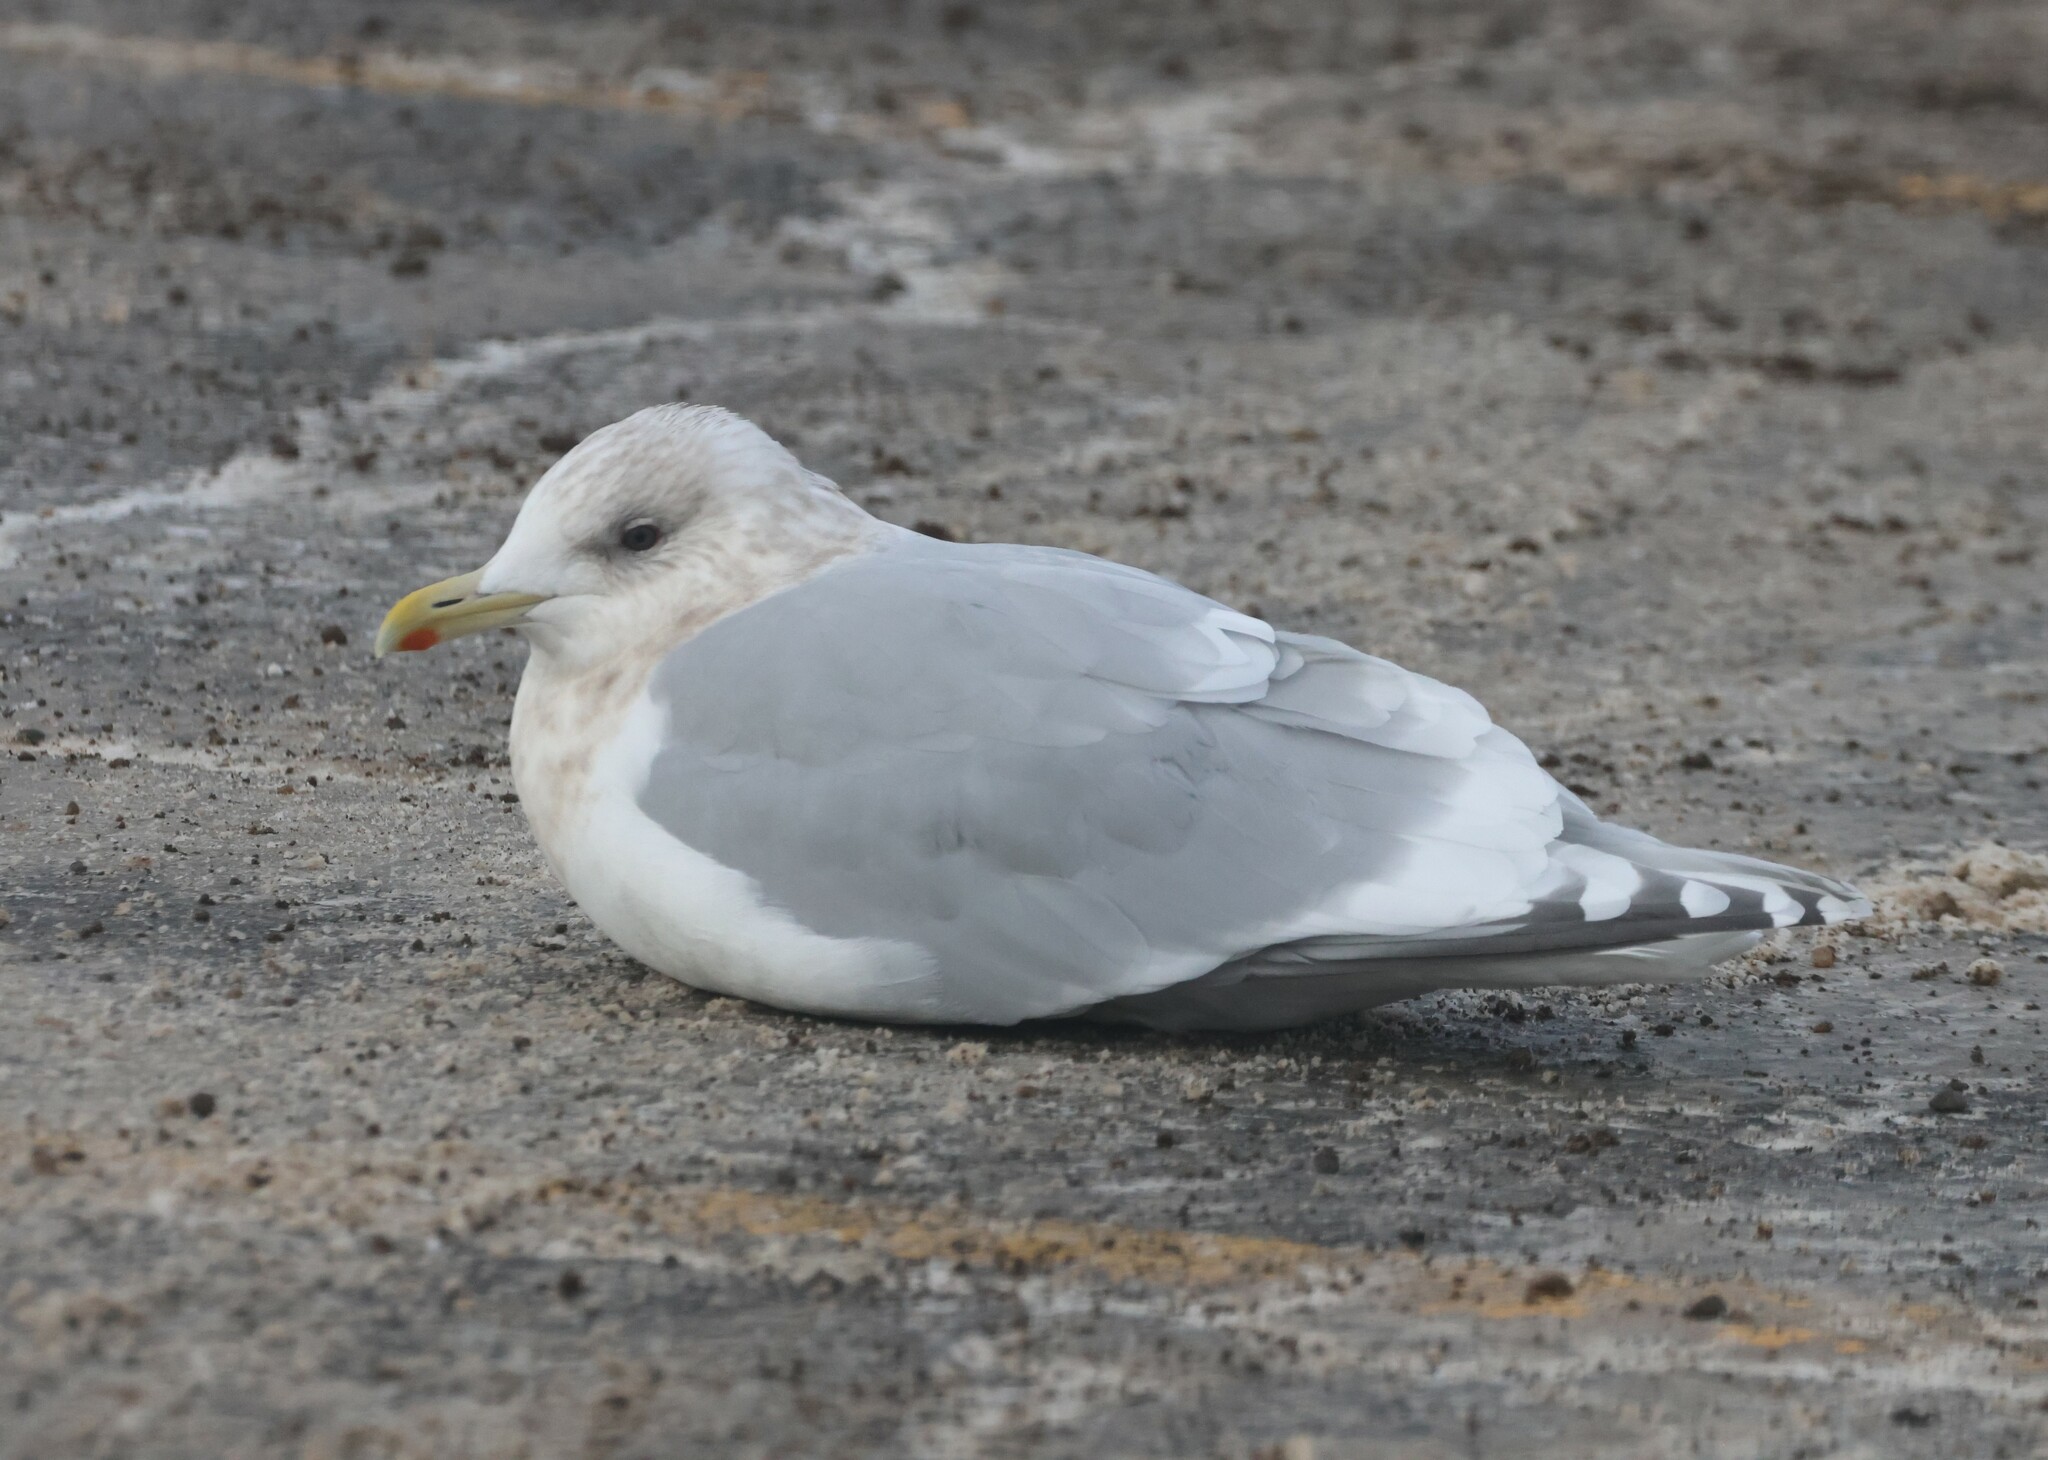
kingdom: Animalia
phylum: Chordata
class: Aves
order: Charadriiformes
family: Laridae
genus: Larus
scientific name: Larus glaucoides
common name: Iceland gull
